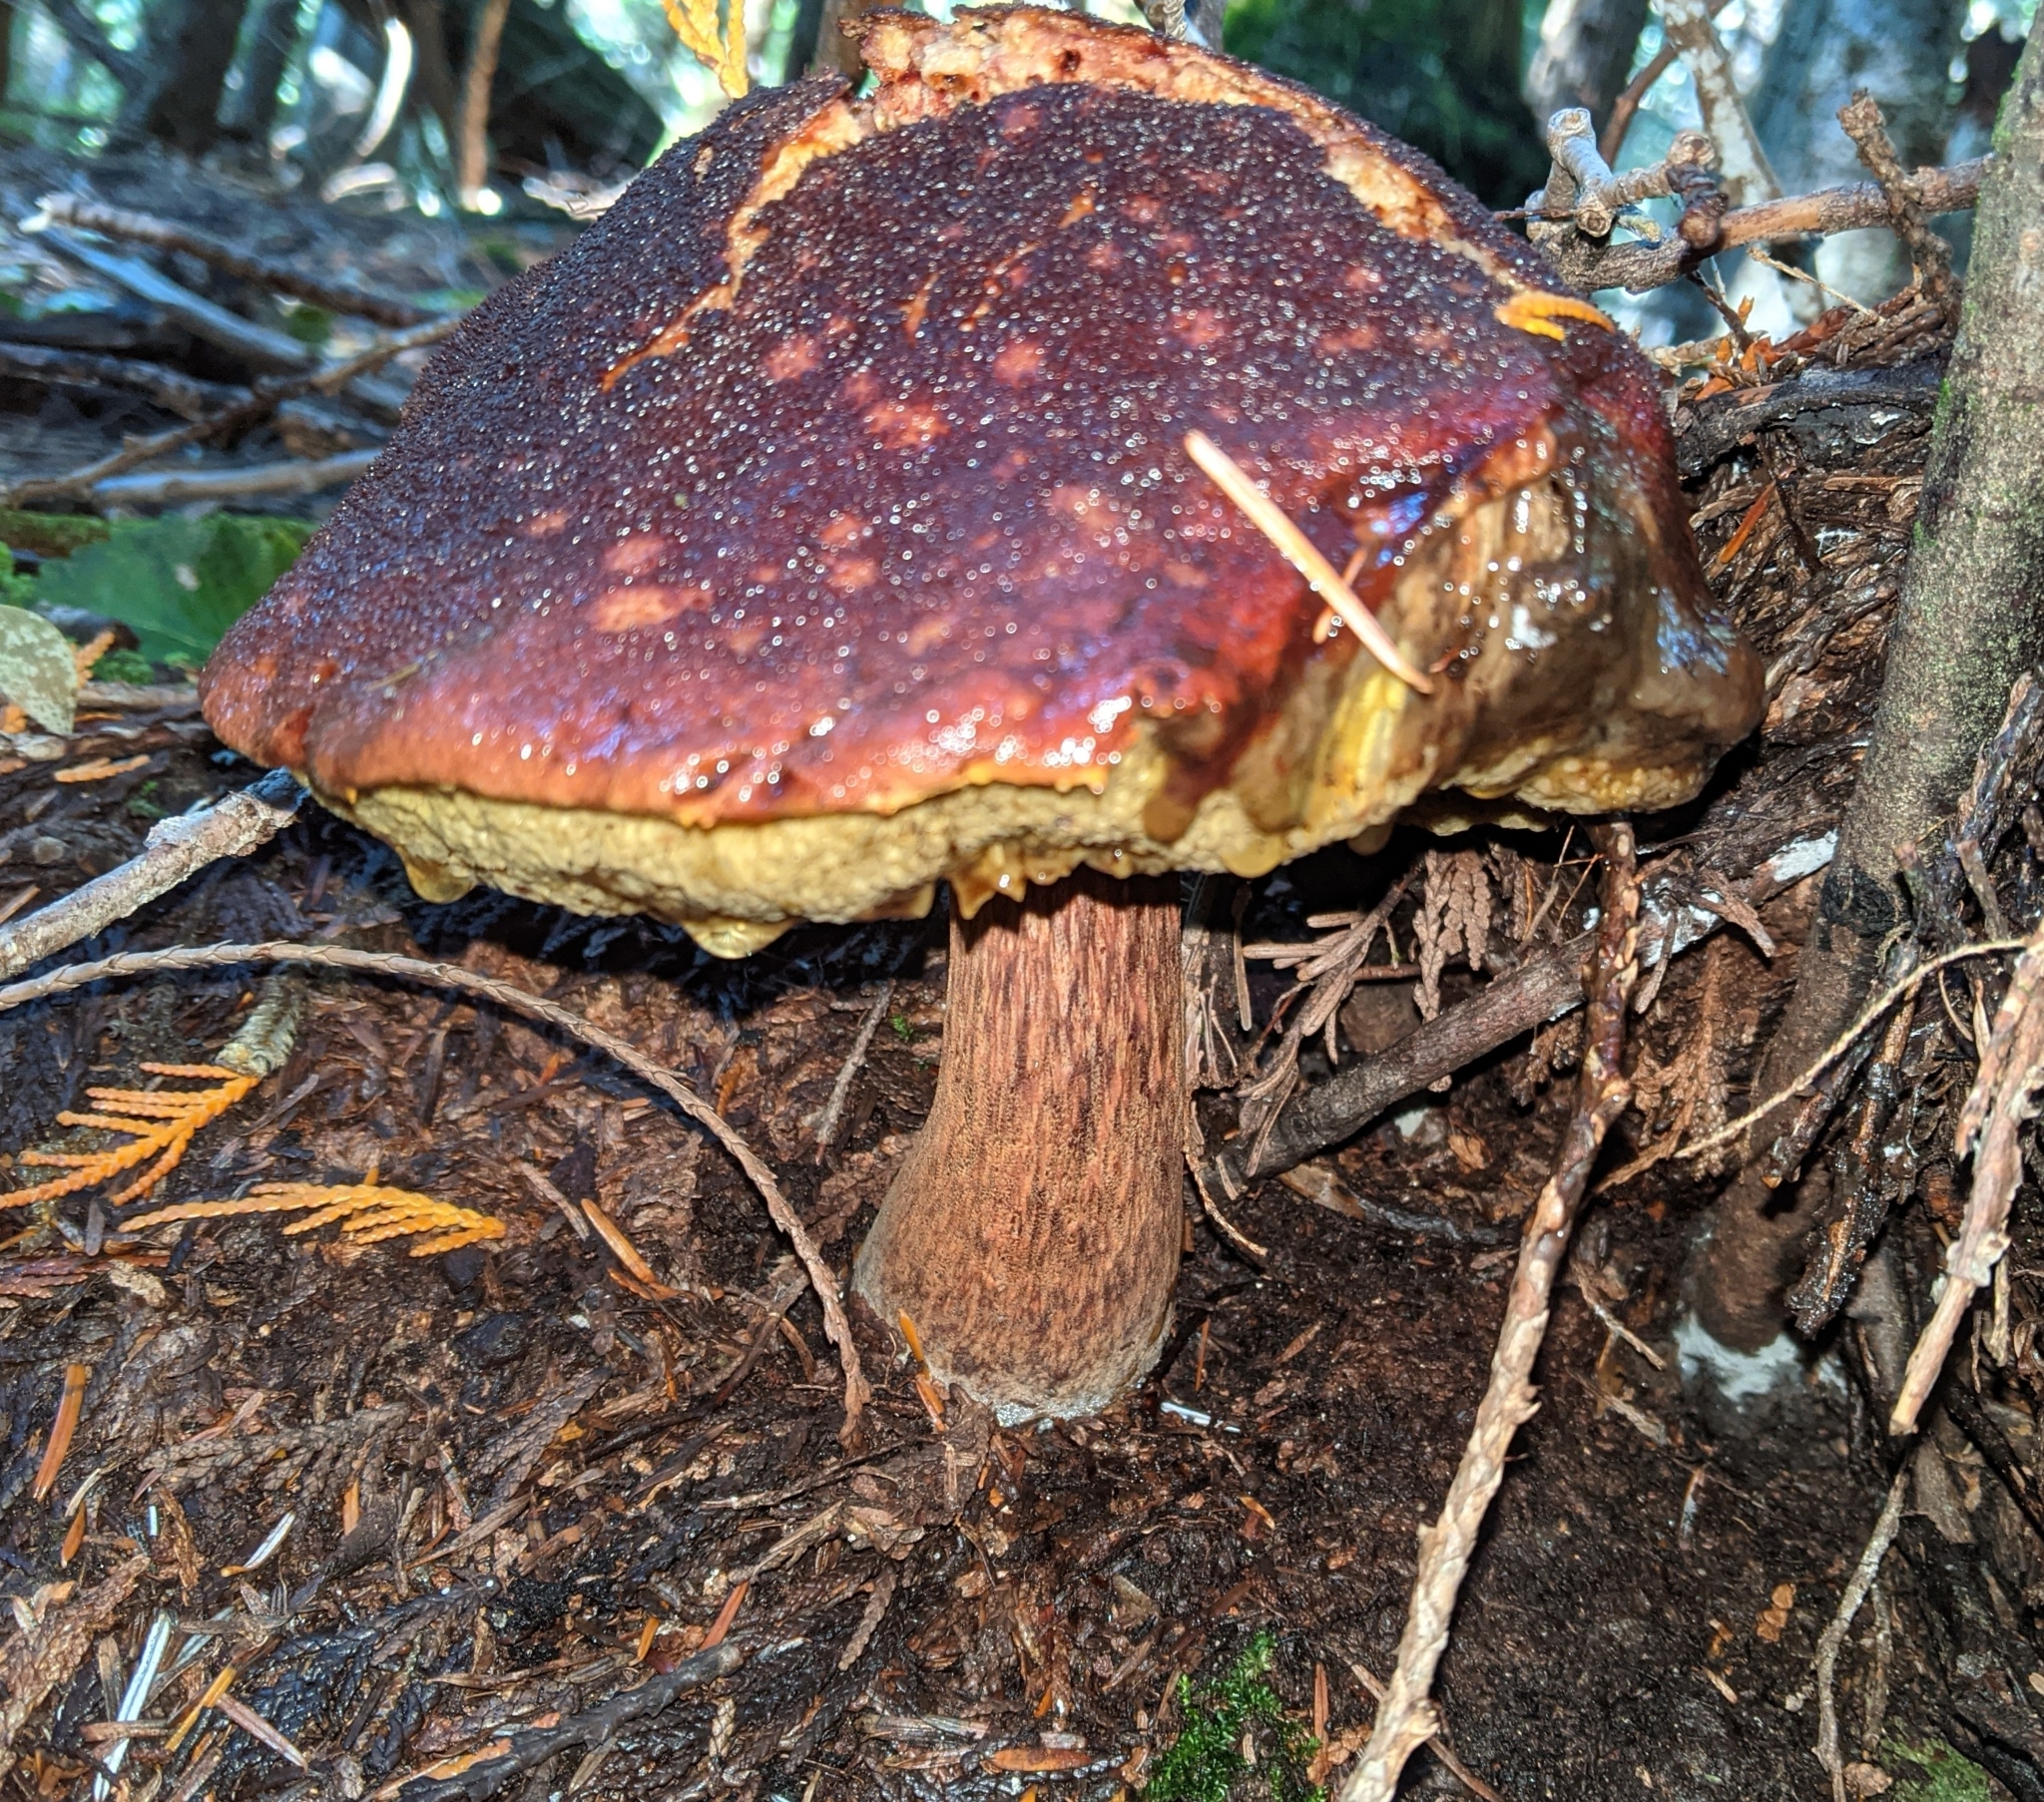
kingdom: Fungi
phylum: Basidiomycota
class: Agaricomycetes
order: Boletales
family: Boletaceae
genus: Aureoboletus
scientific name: Aureoboletus mirabilis
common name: Admirable bolete
